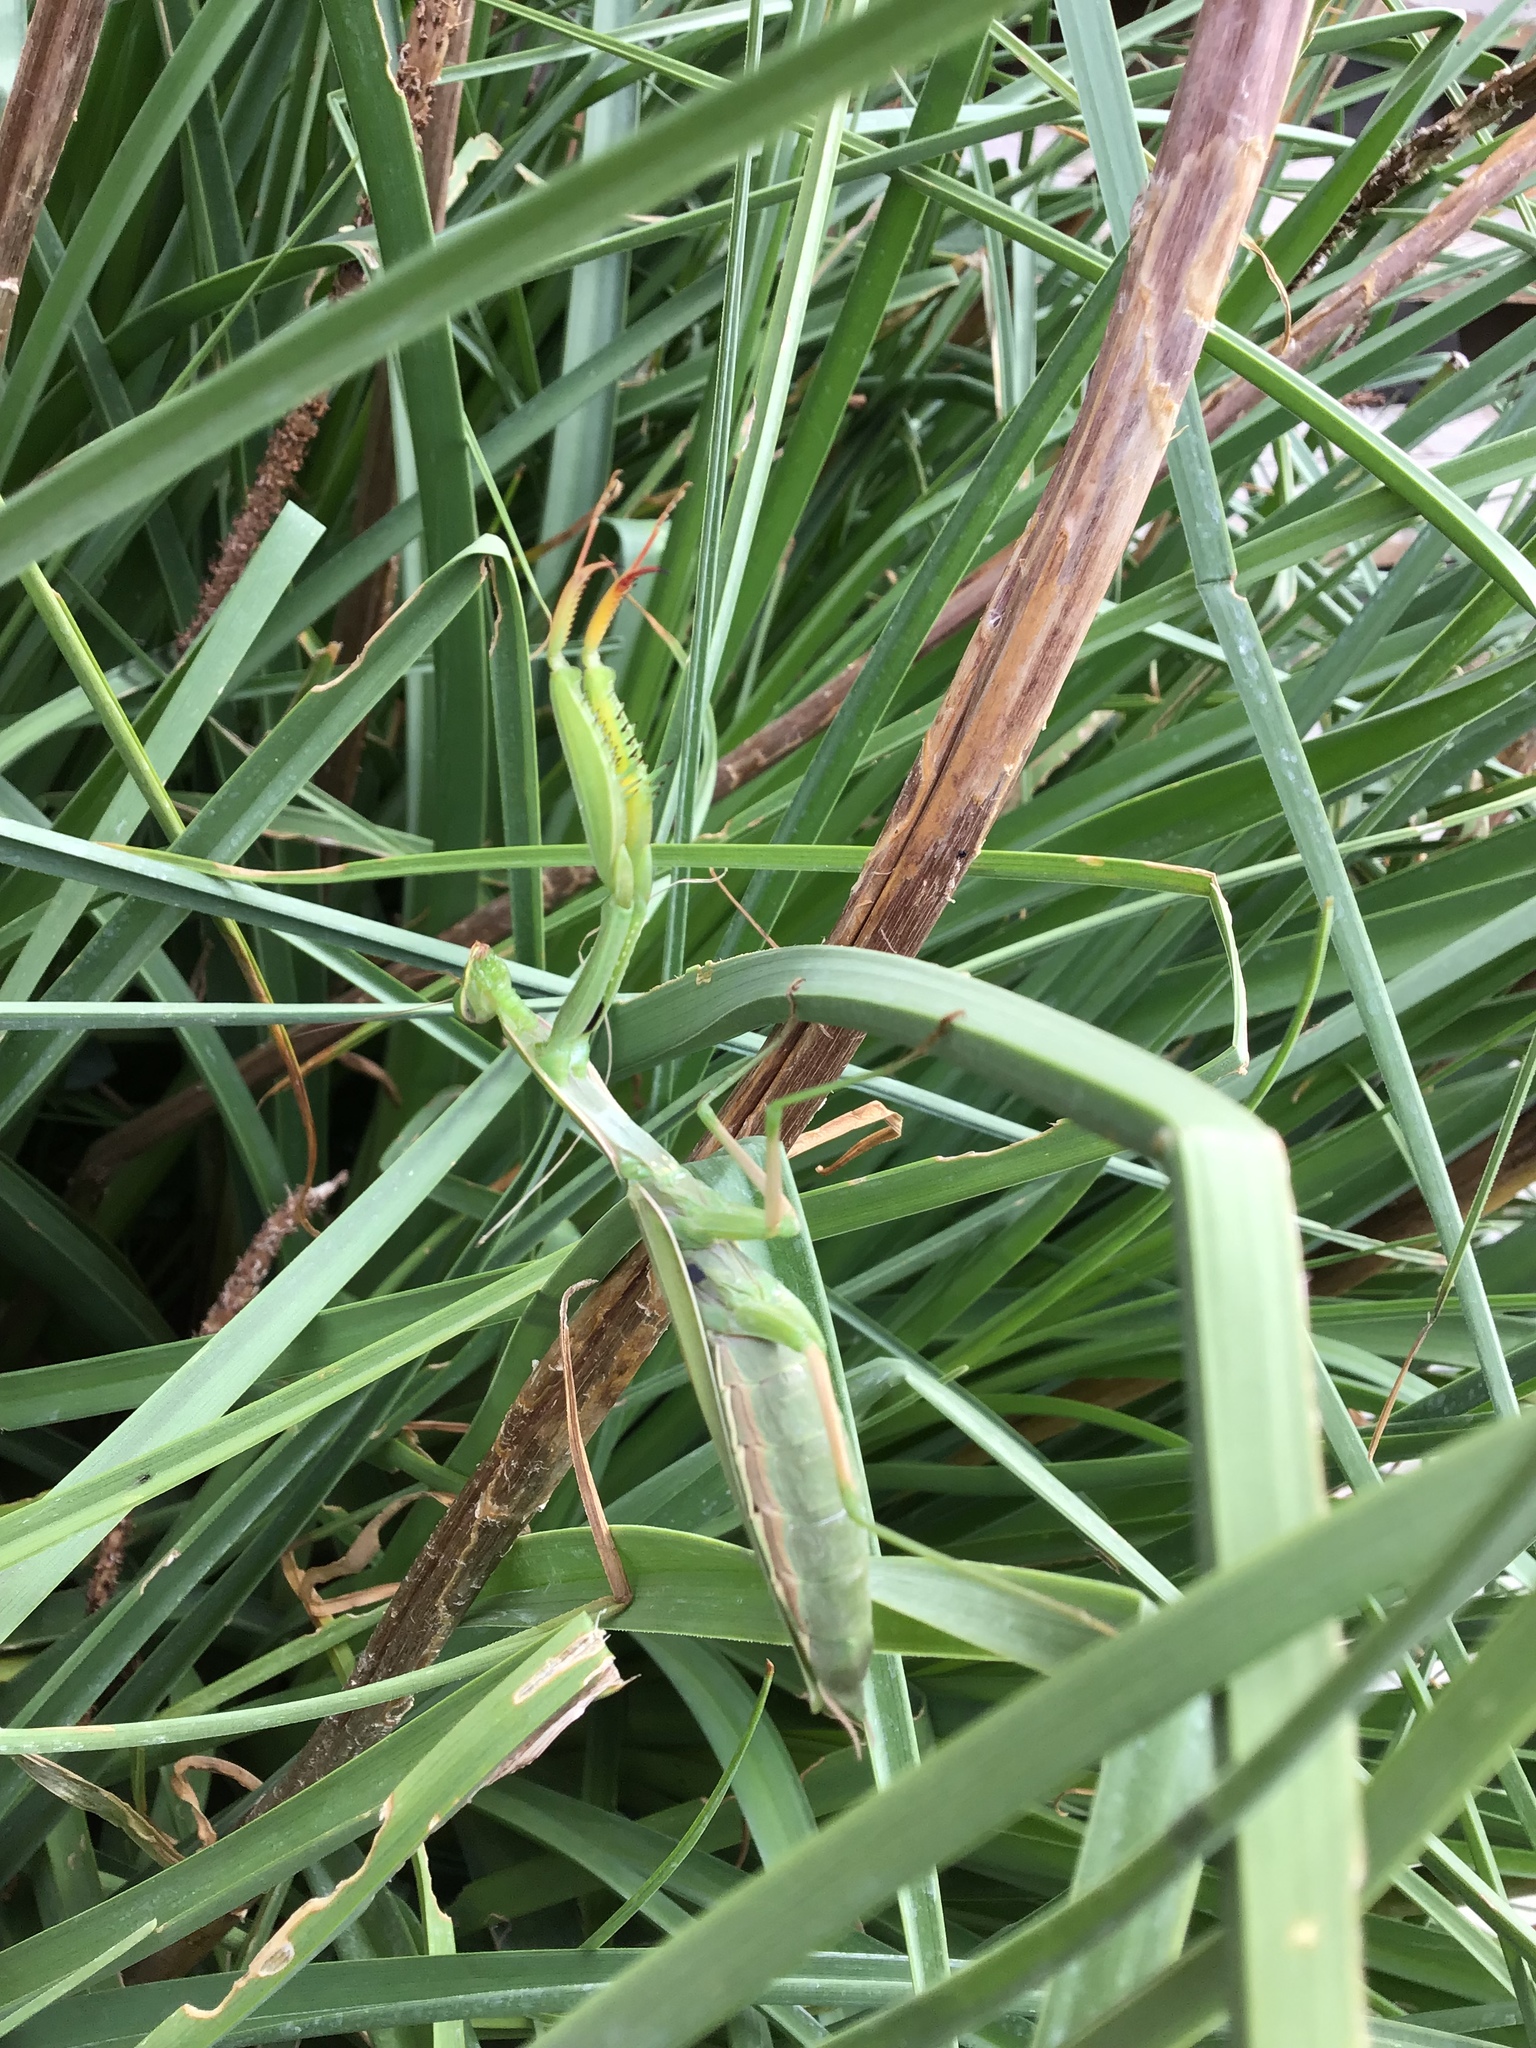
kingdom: Animalia
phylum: Arthropoda
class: Insecta
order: Mantodea
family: Mantidae
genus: Mantis
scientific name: Mantis religiosa
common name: Praying mantis
